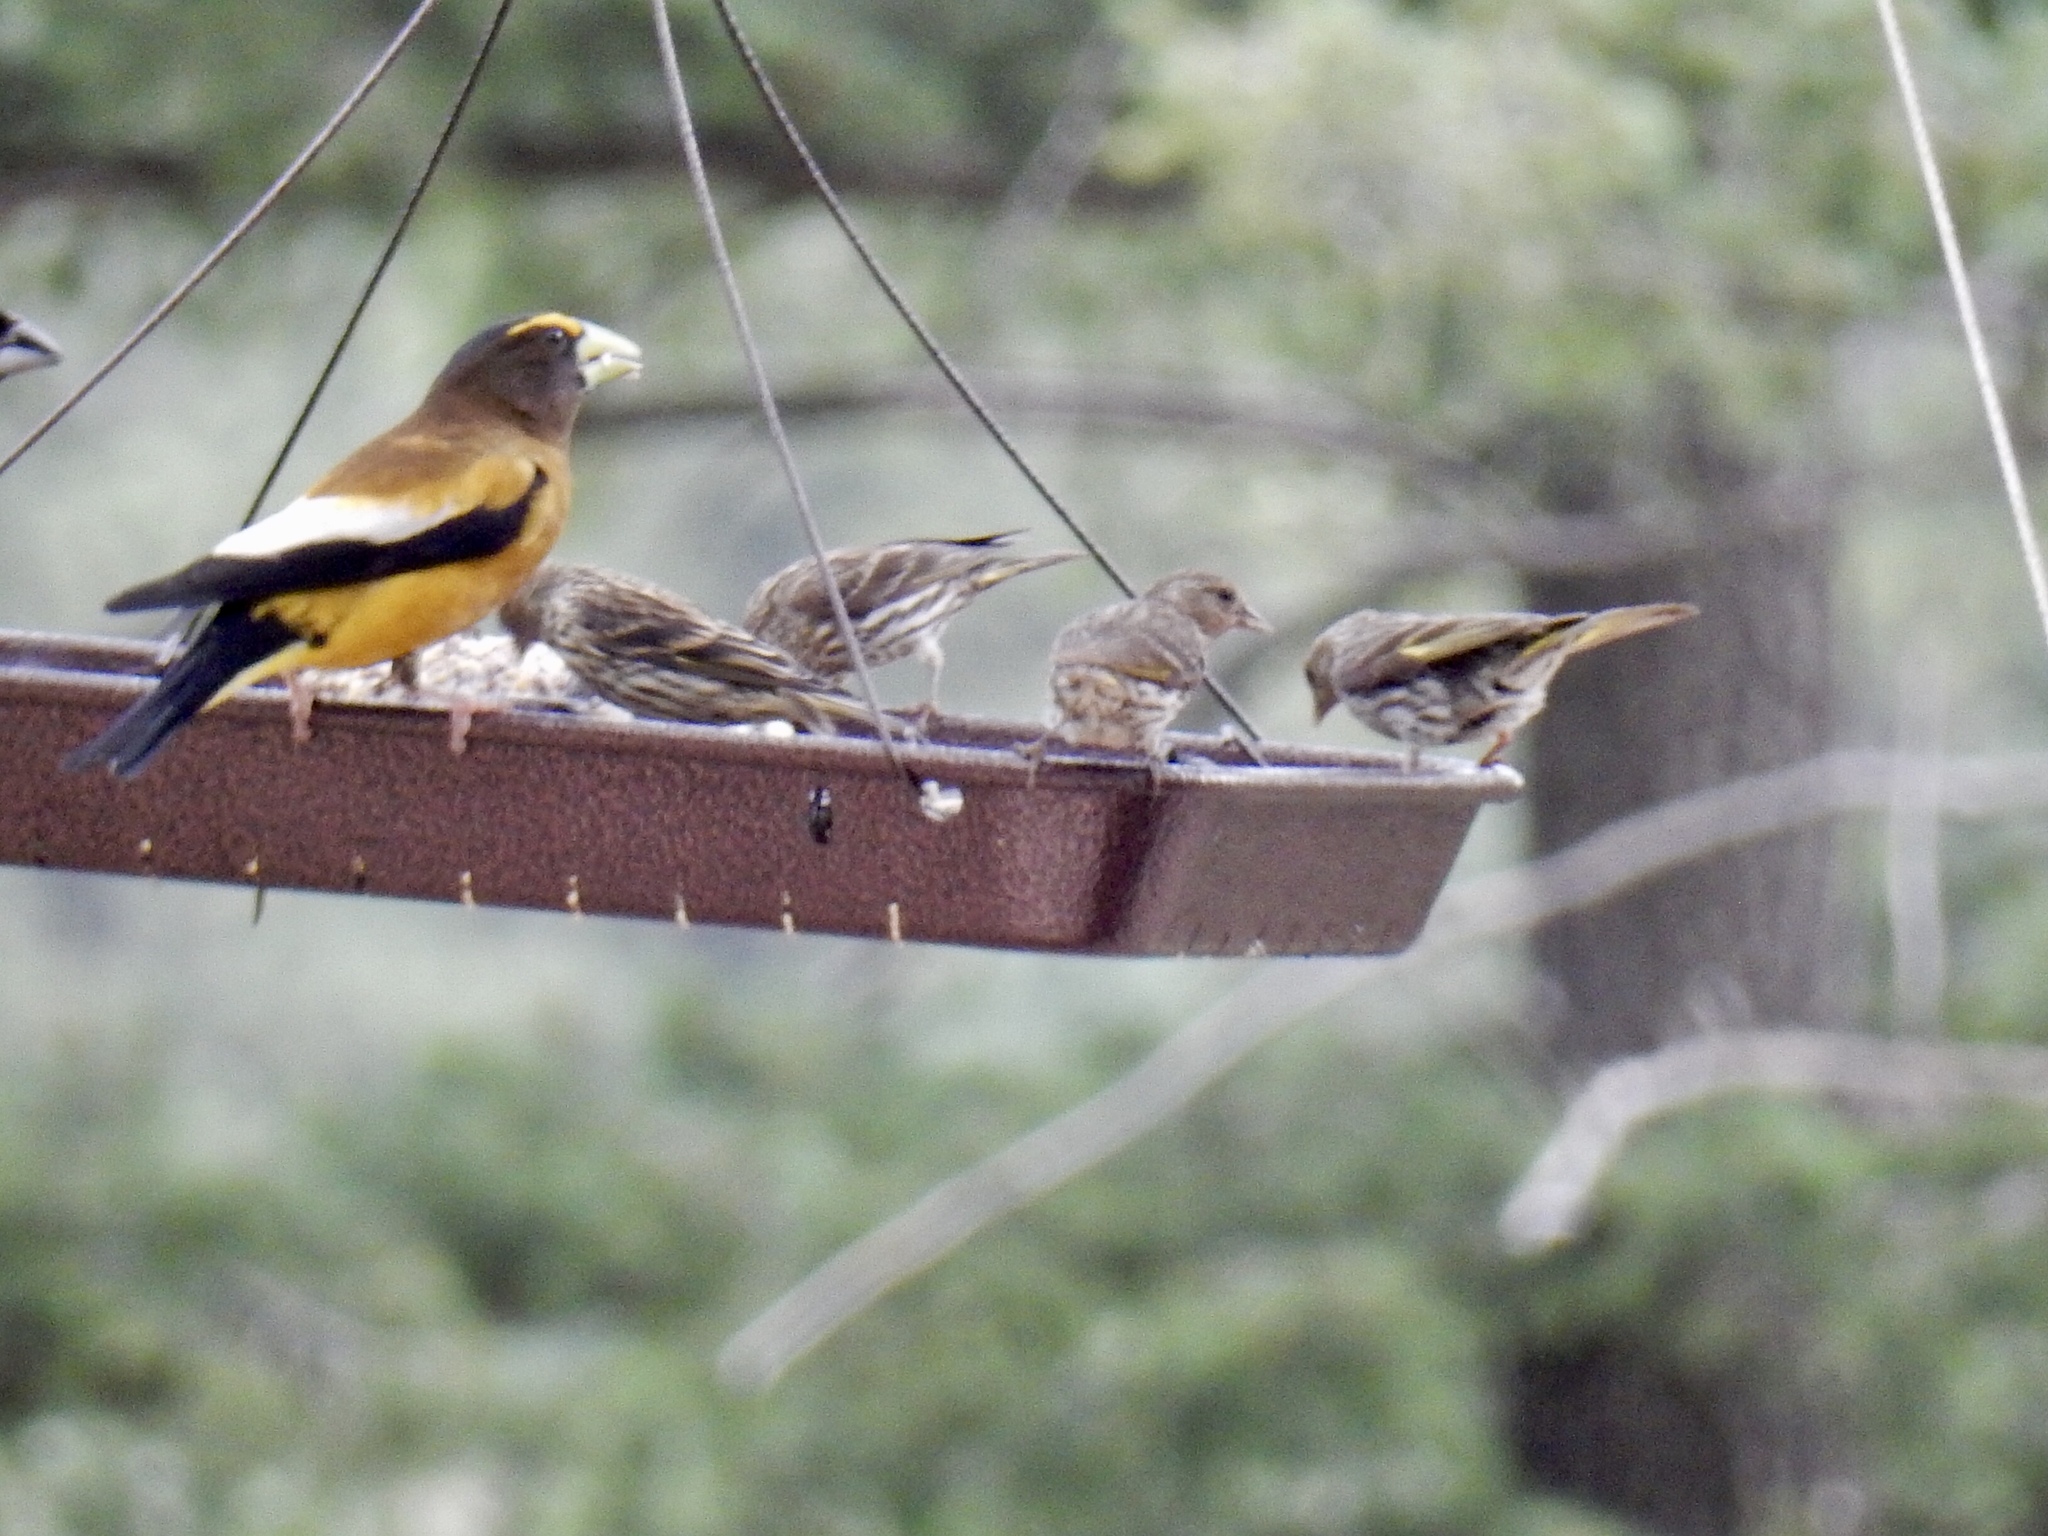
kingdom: Animalia
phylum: Chordata
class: Aves
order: Passeriformes
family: Fringillidae
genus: Spinus
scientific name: Spinus pinus
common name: Pine siskin
